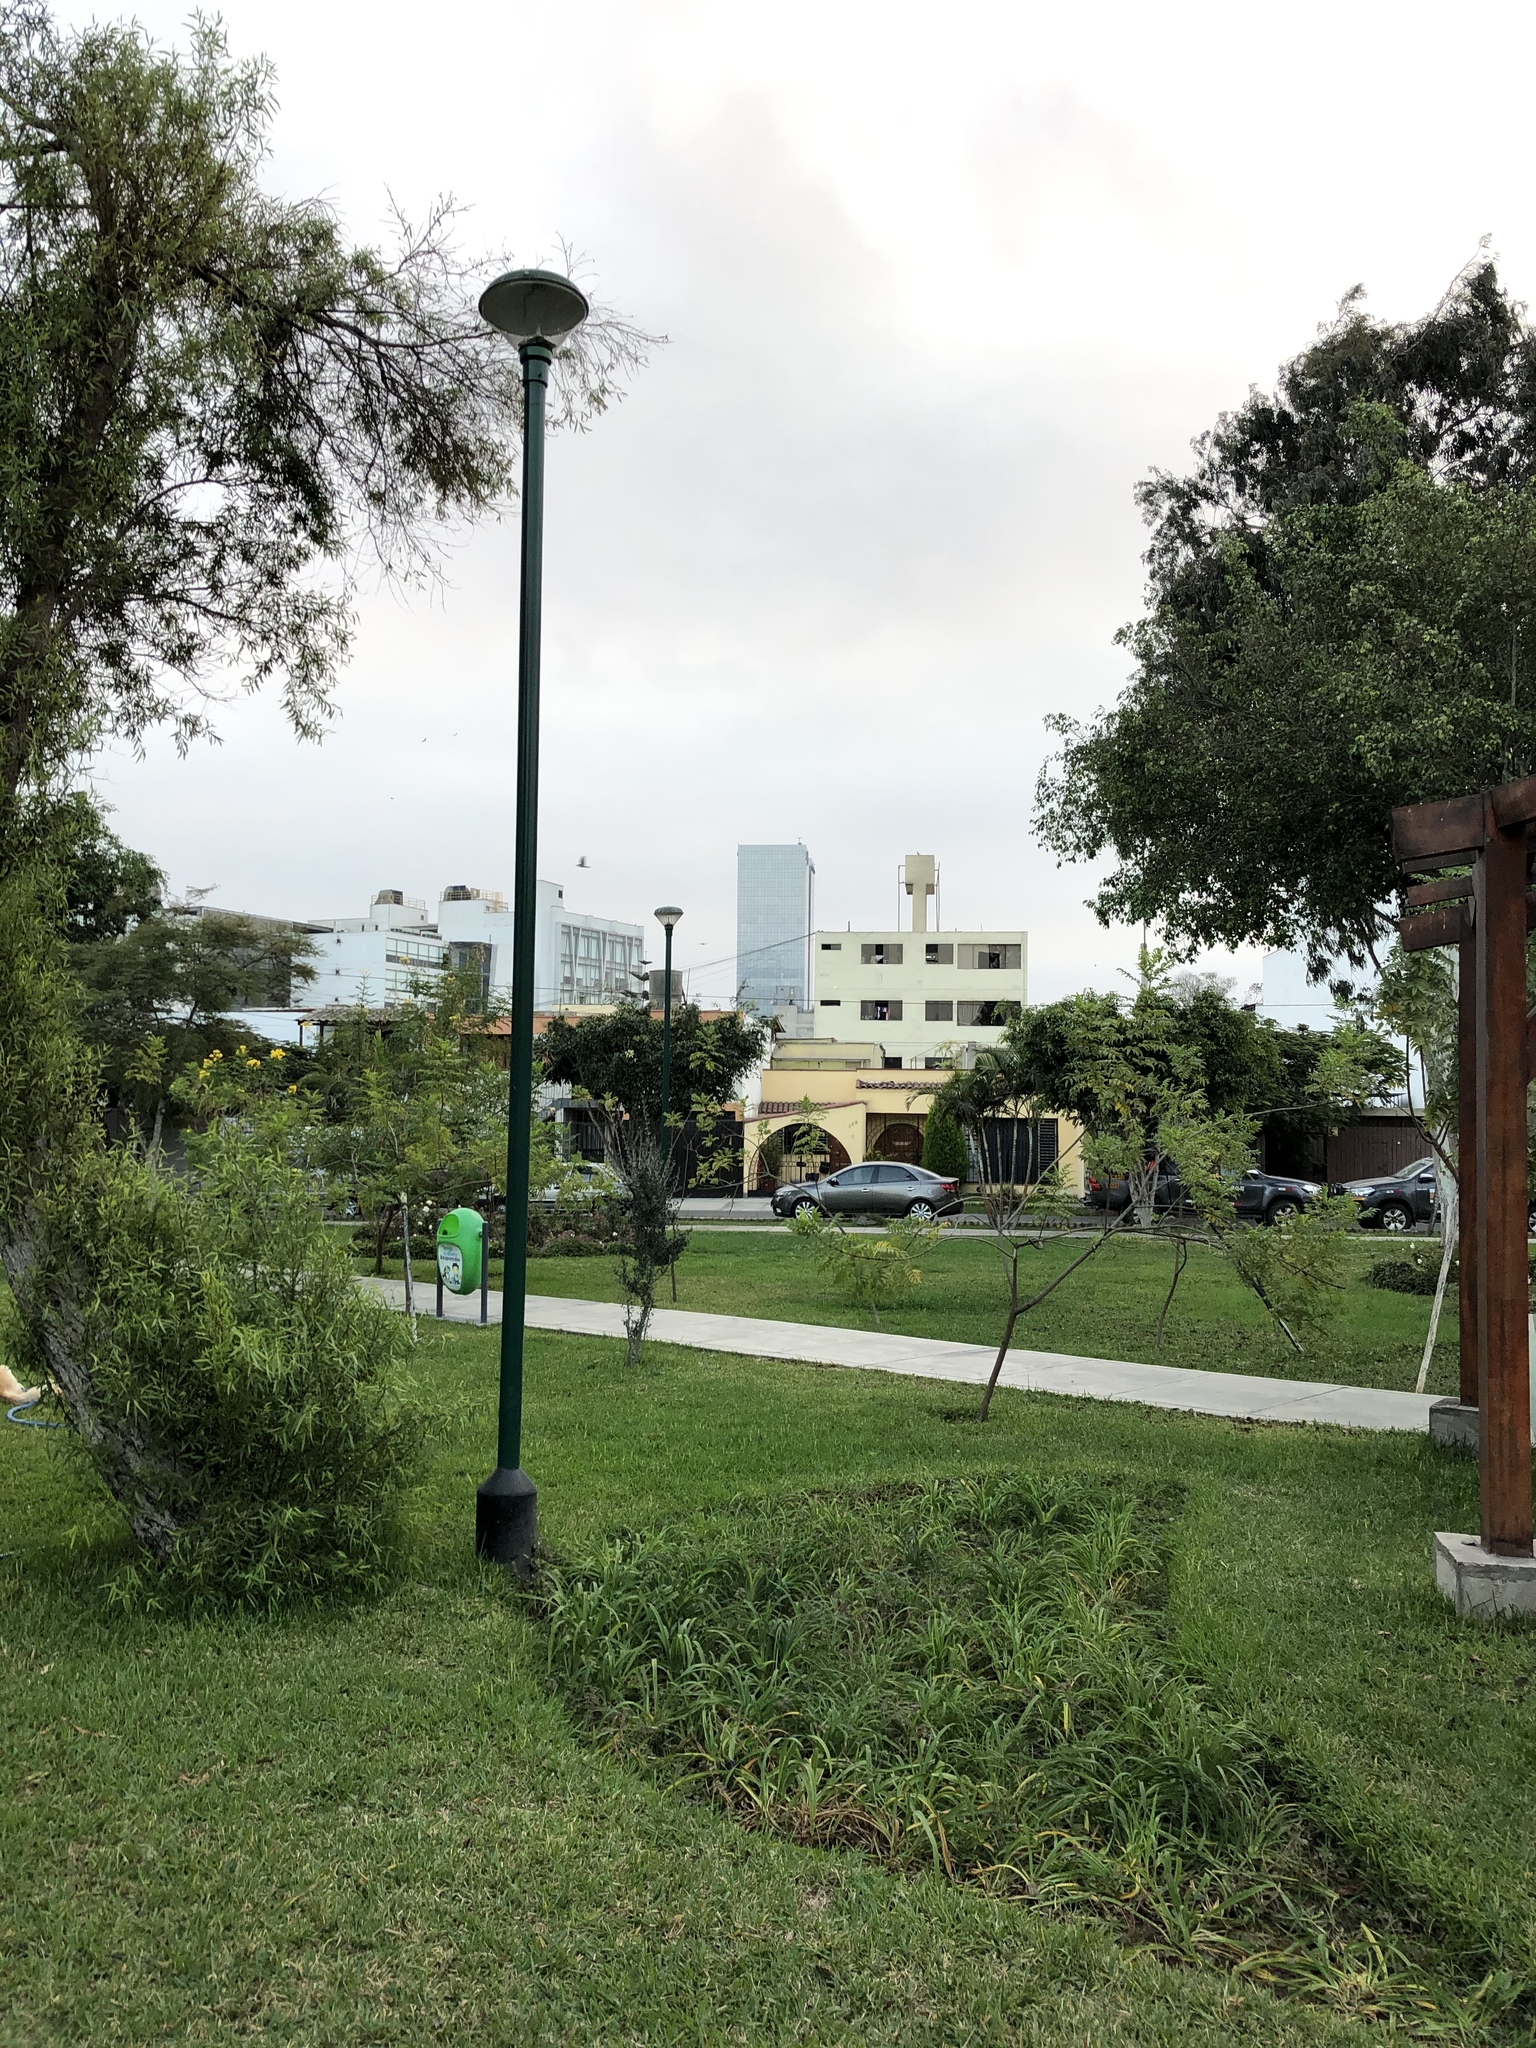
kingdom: Animalia
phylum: Chordata
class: Aves
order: Accipitriformes
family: Accipitridae
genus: Parabuteo
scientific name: Parabuteo unicinctus
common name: Harris's hawk
